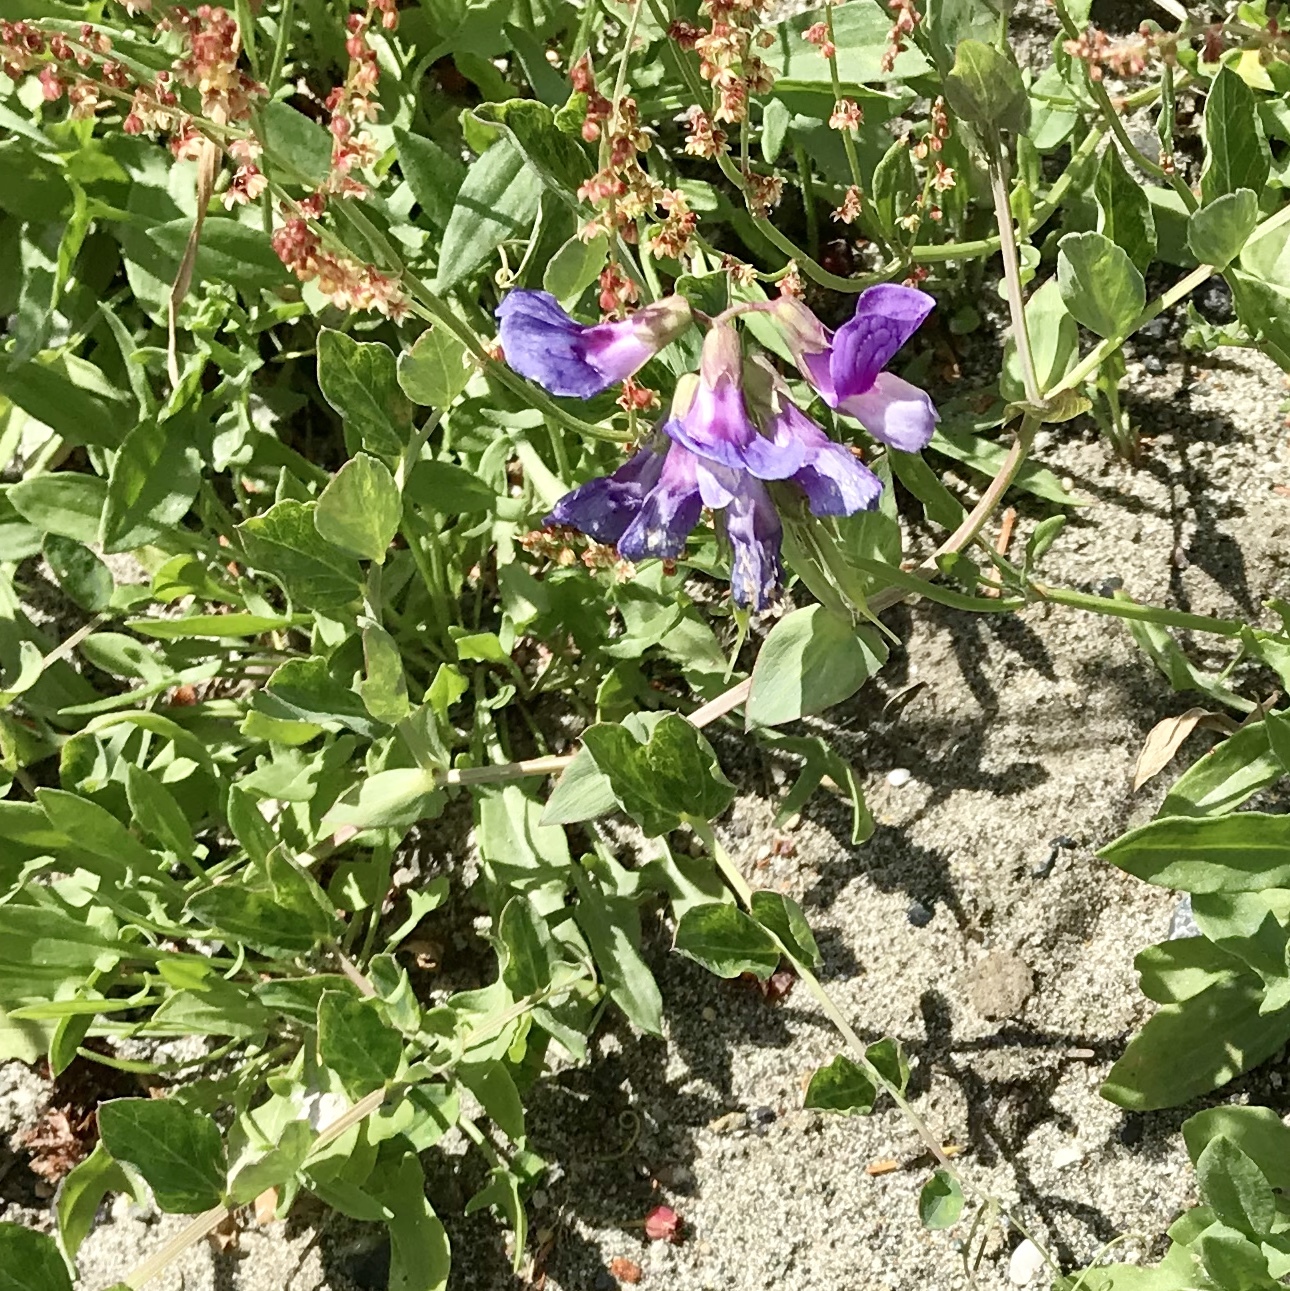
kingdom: Plantae
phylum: Tracheophyta
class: Magnoliopsida
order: Fabales
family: Fabaceae
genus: Lathyrus
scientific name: Lathyrus japonicus
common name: Sea pea
